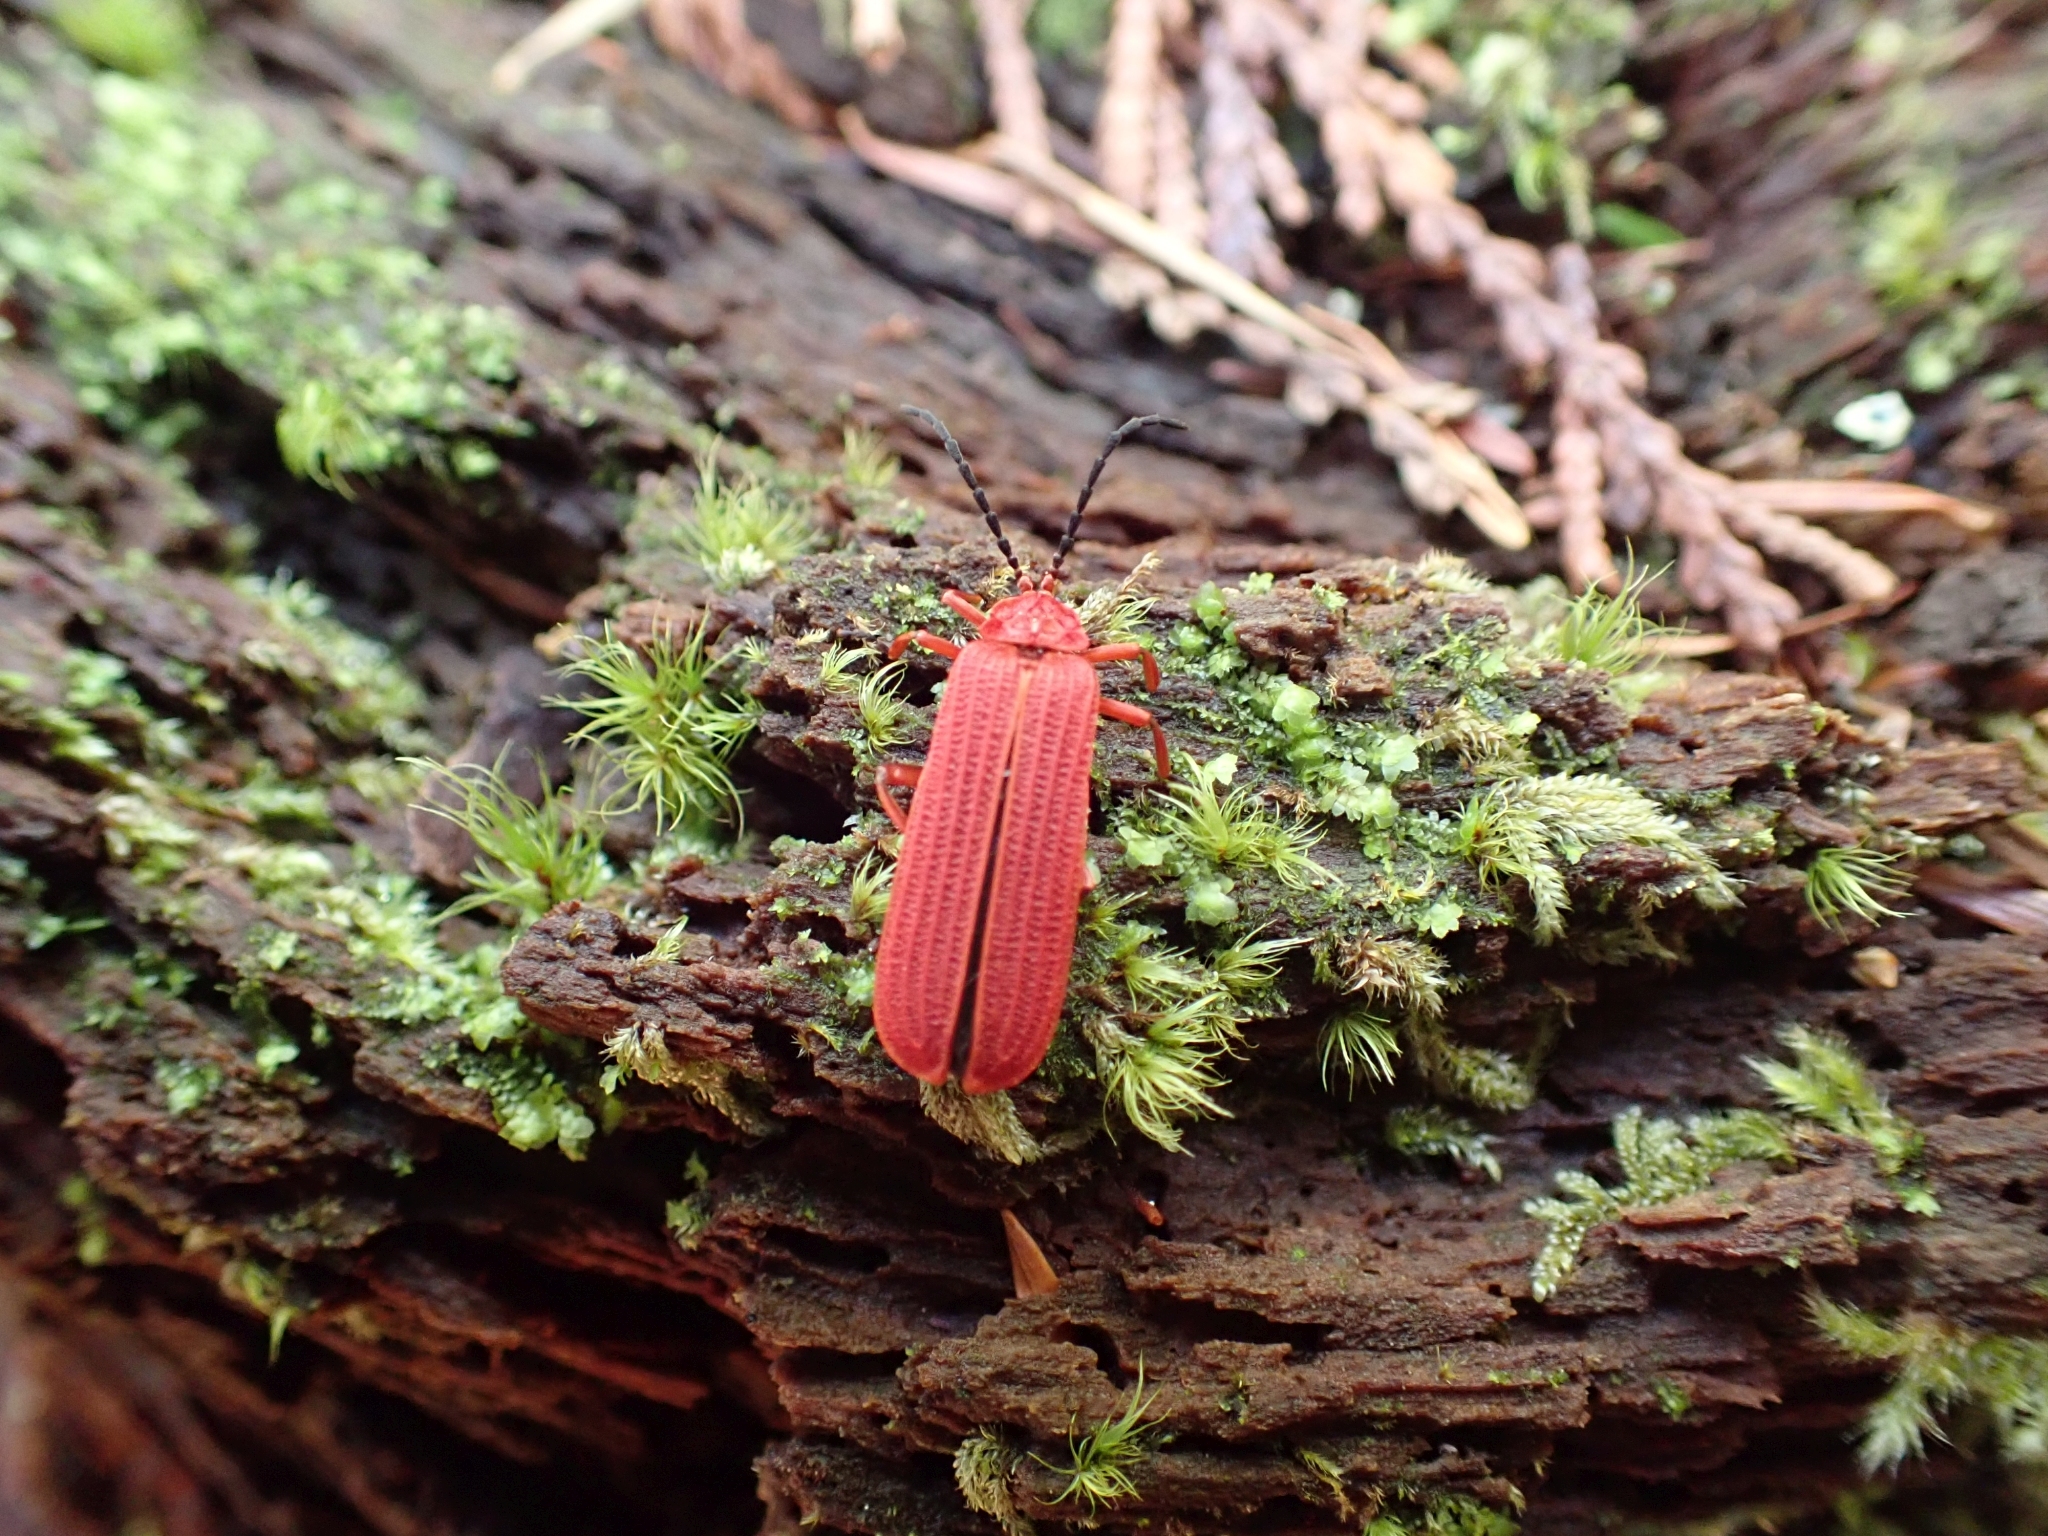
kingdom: Animalia
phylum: Arthropoda
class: Insecta
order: Coleoptera
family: Lycidae
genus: Punicealis
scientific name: Punicealis hamata
